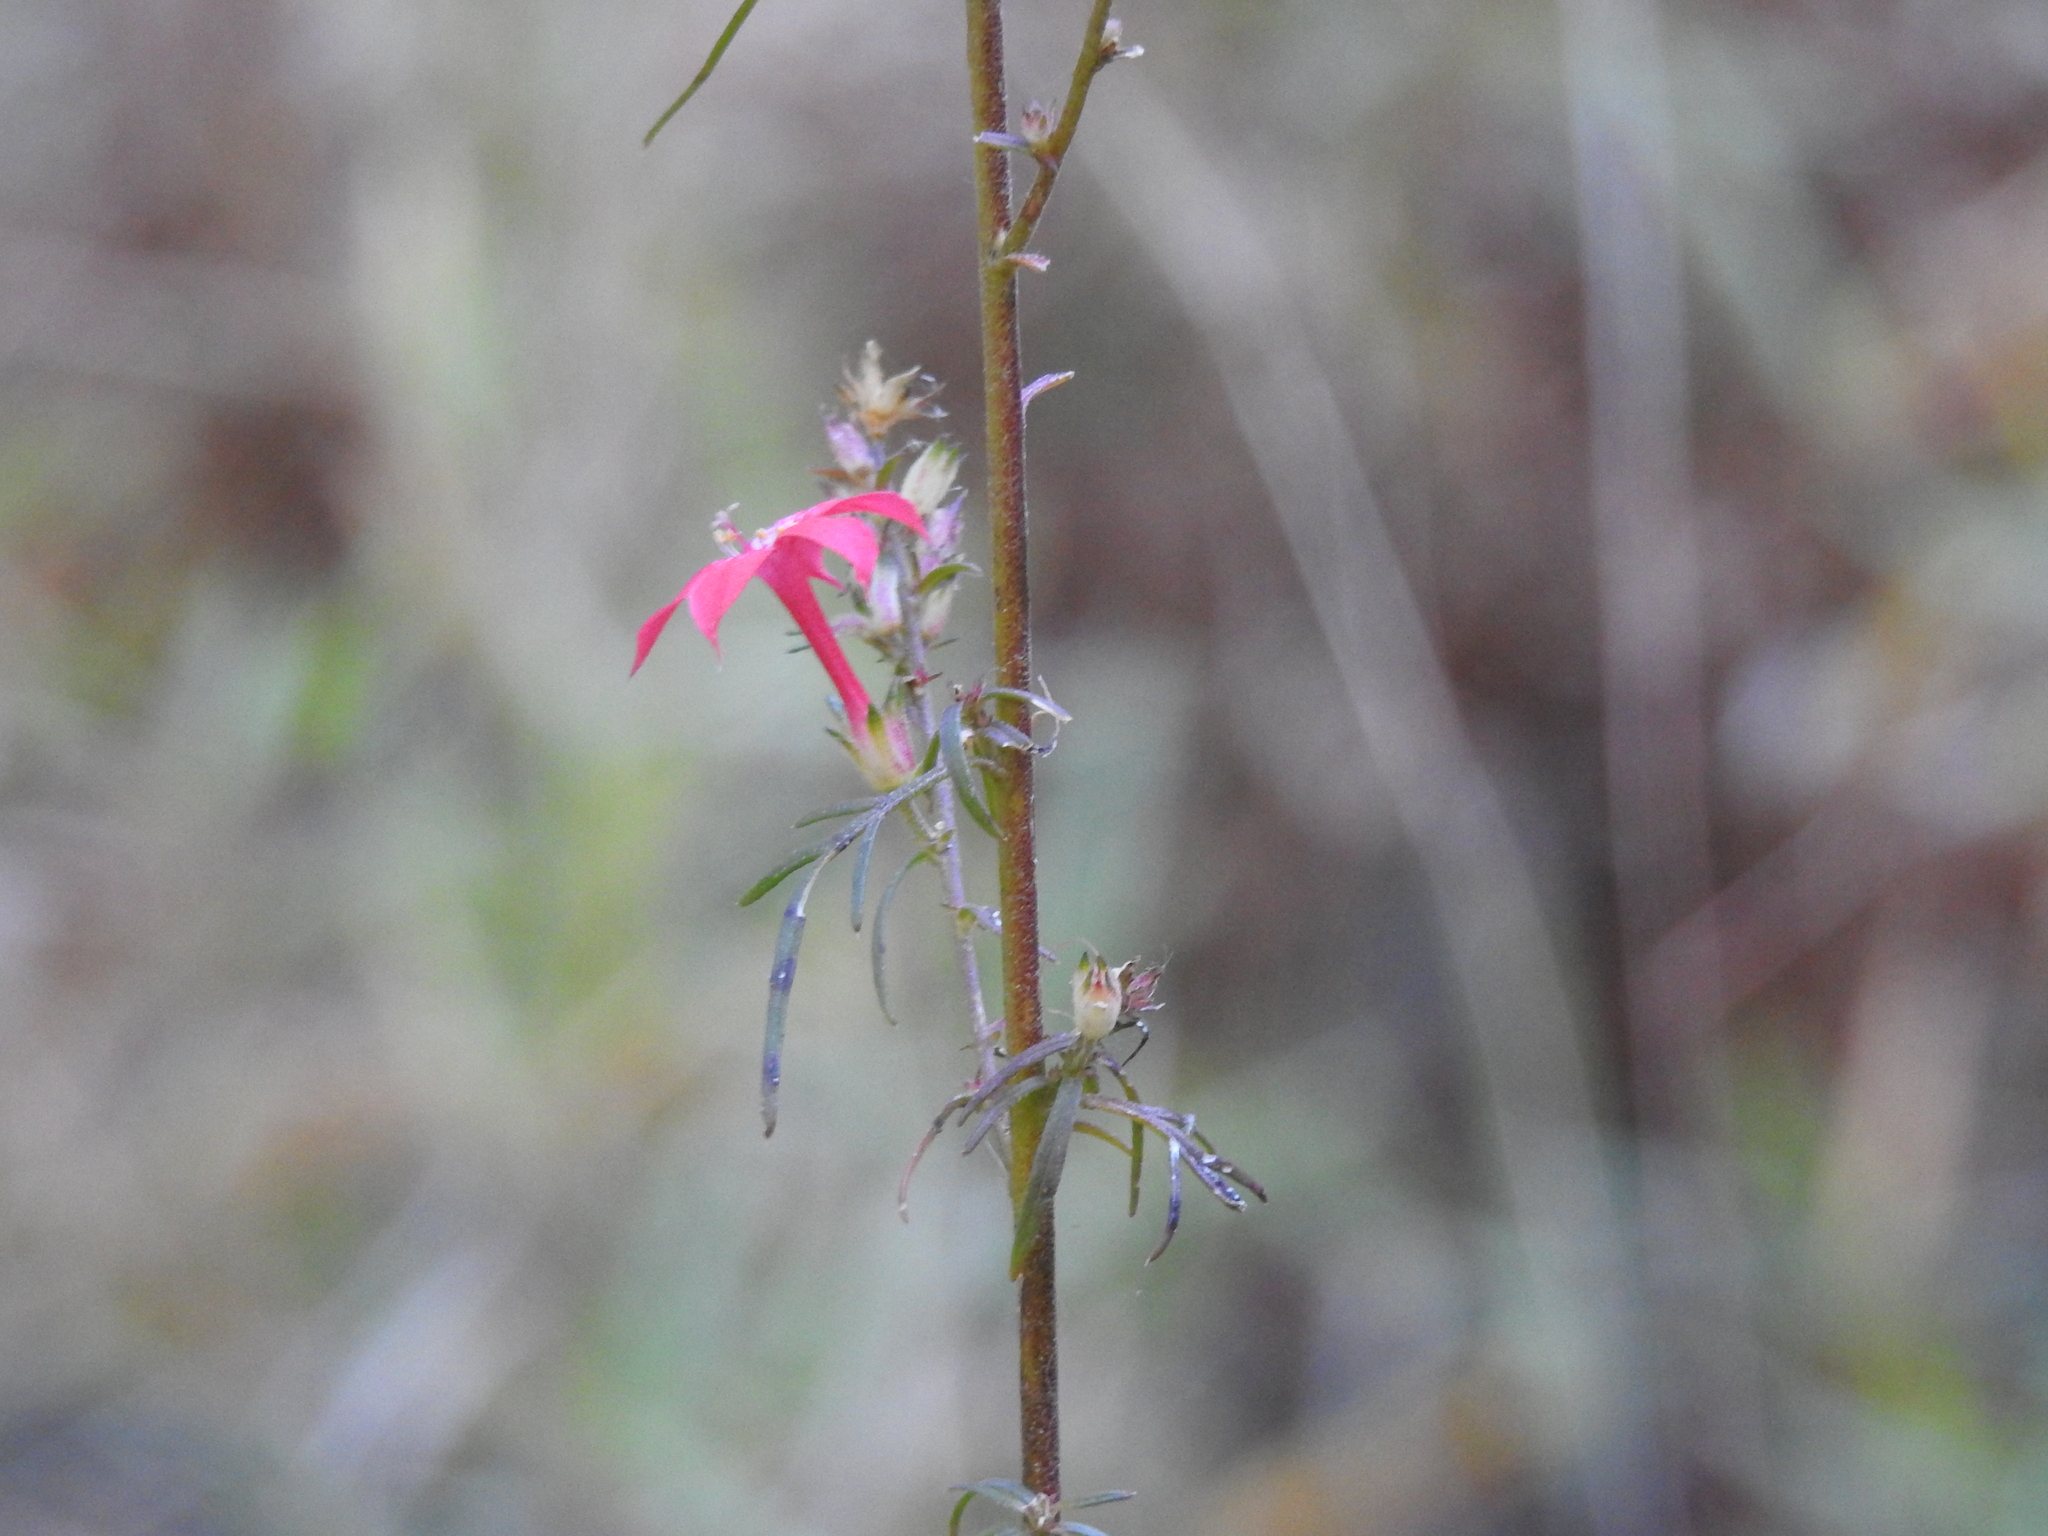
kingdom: Plantae
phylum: Tracheophyta
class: Magnoliopsida
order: Ericales
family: Polemoniaceae
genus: Ipomopsis
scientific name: Ipomopsis arizonica
